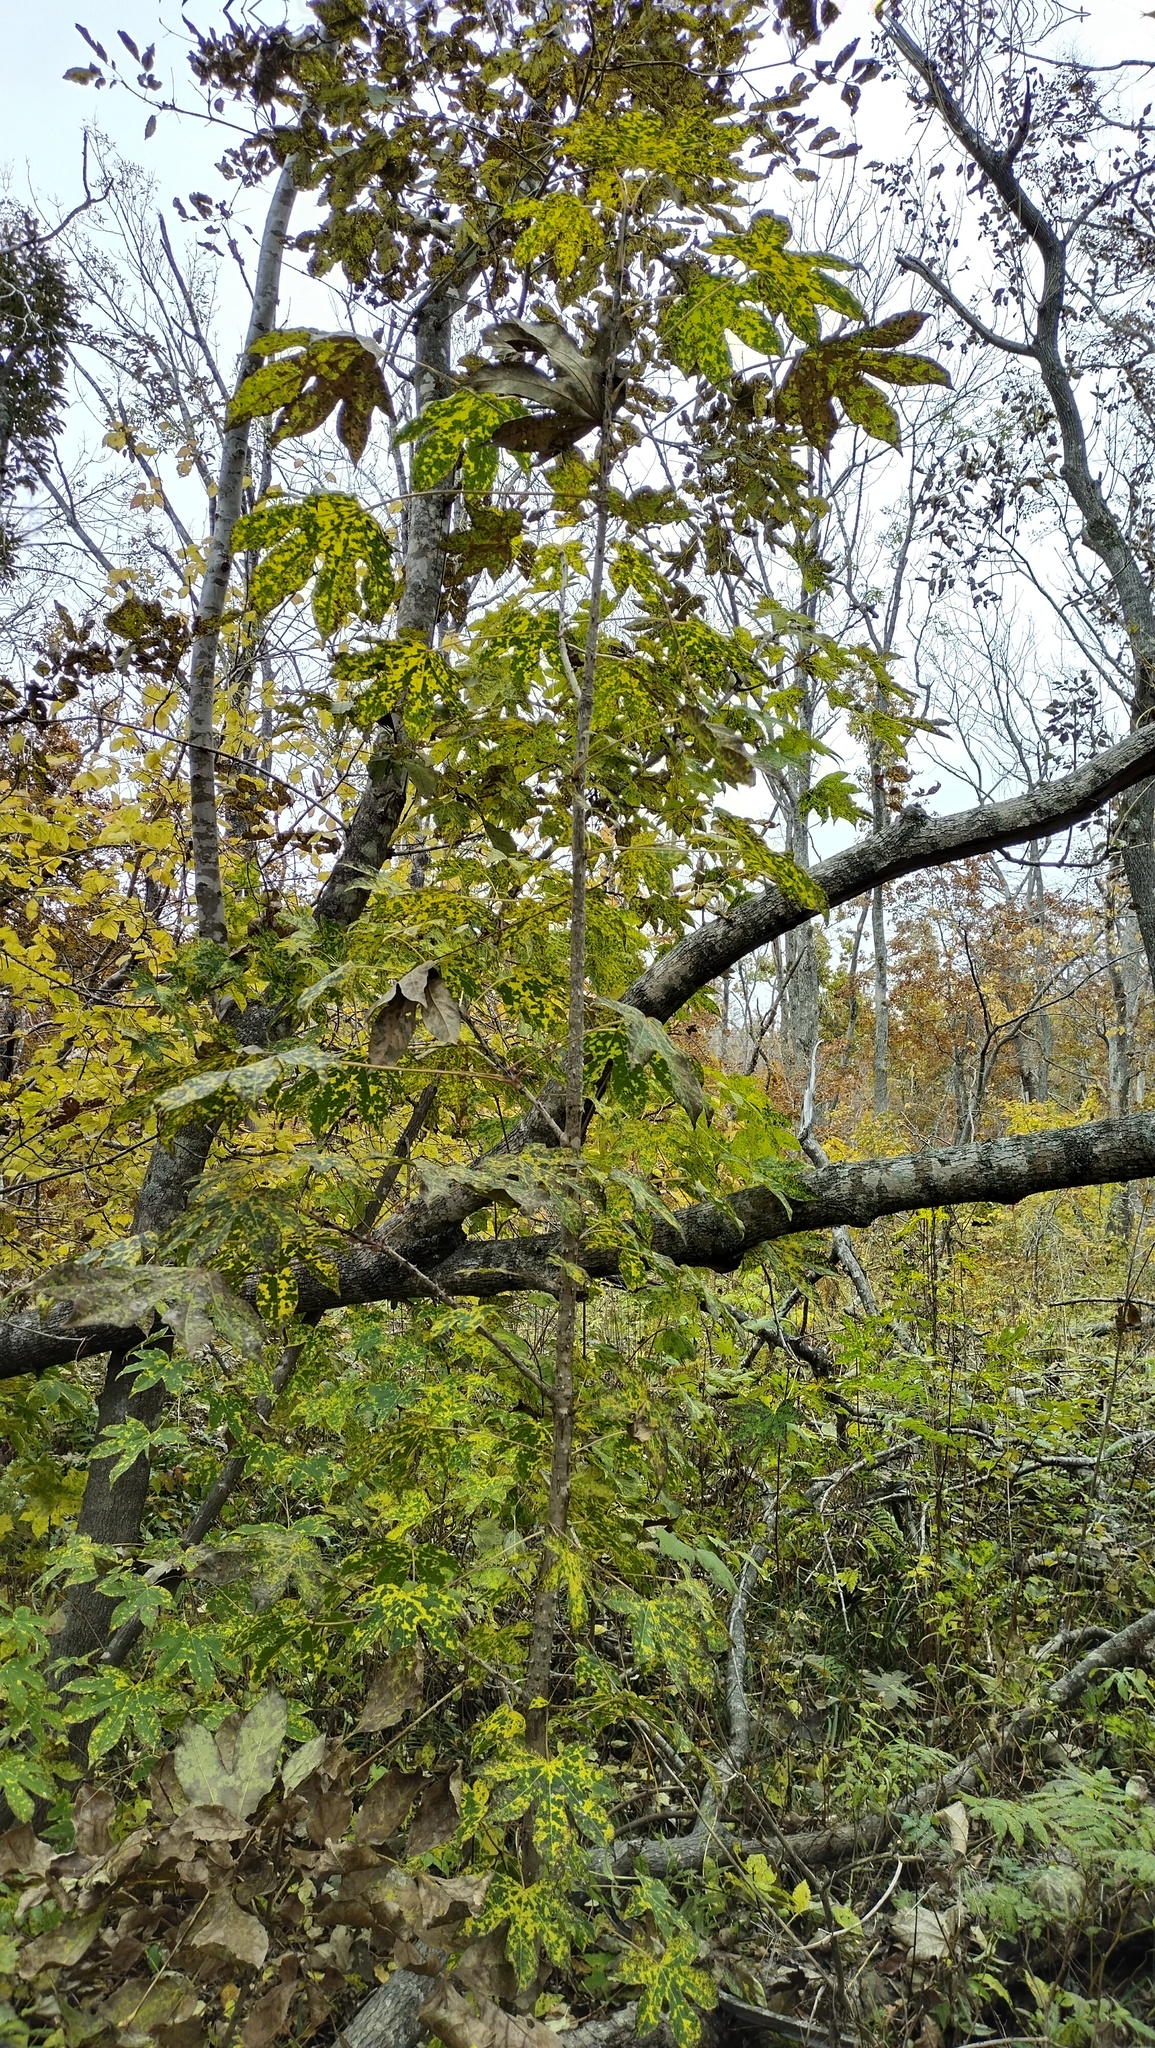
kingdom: Plantae
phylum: Tracheophyta
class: Magnoliopsida
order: Apiales
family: Araliaceae
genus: Kalopanax
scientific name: Kalopanax septemlobus
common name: Castor aralia
